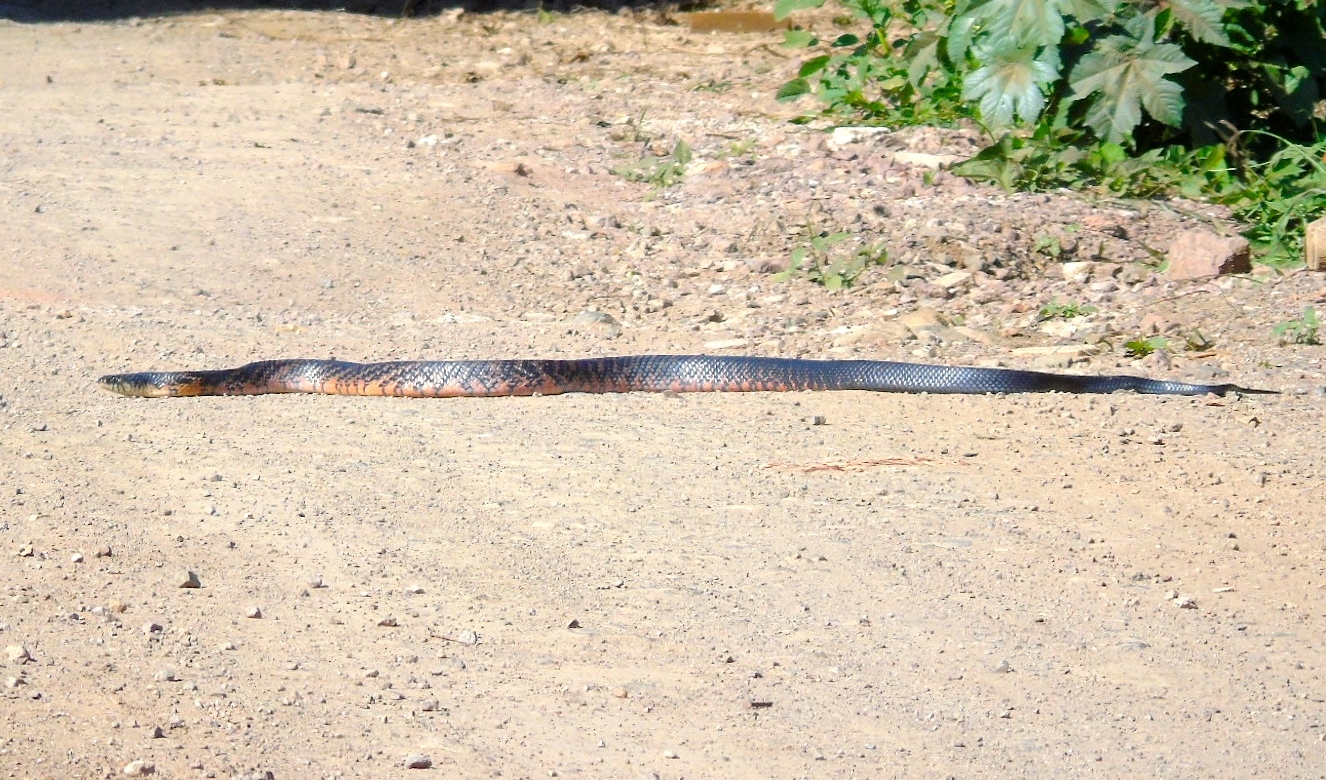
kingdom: Animalia
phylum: Chordata
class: Squamata
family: Colubridae
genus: Drymarchon
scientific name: Drymarchon melanurus
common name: Central american indigo snake
